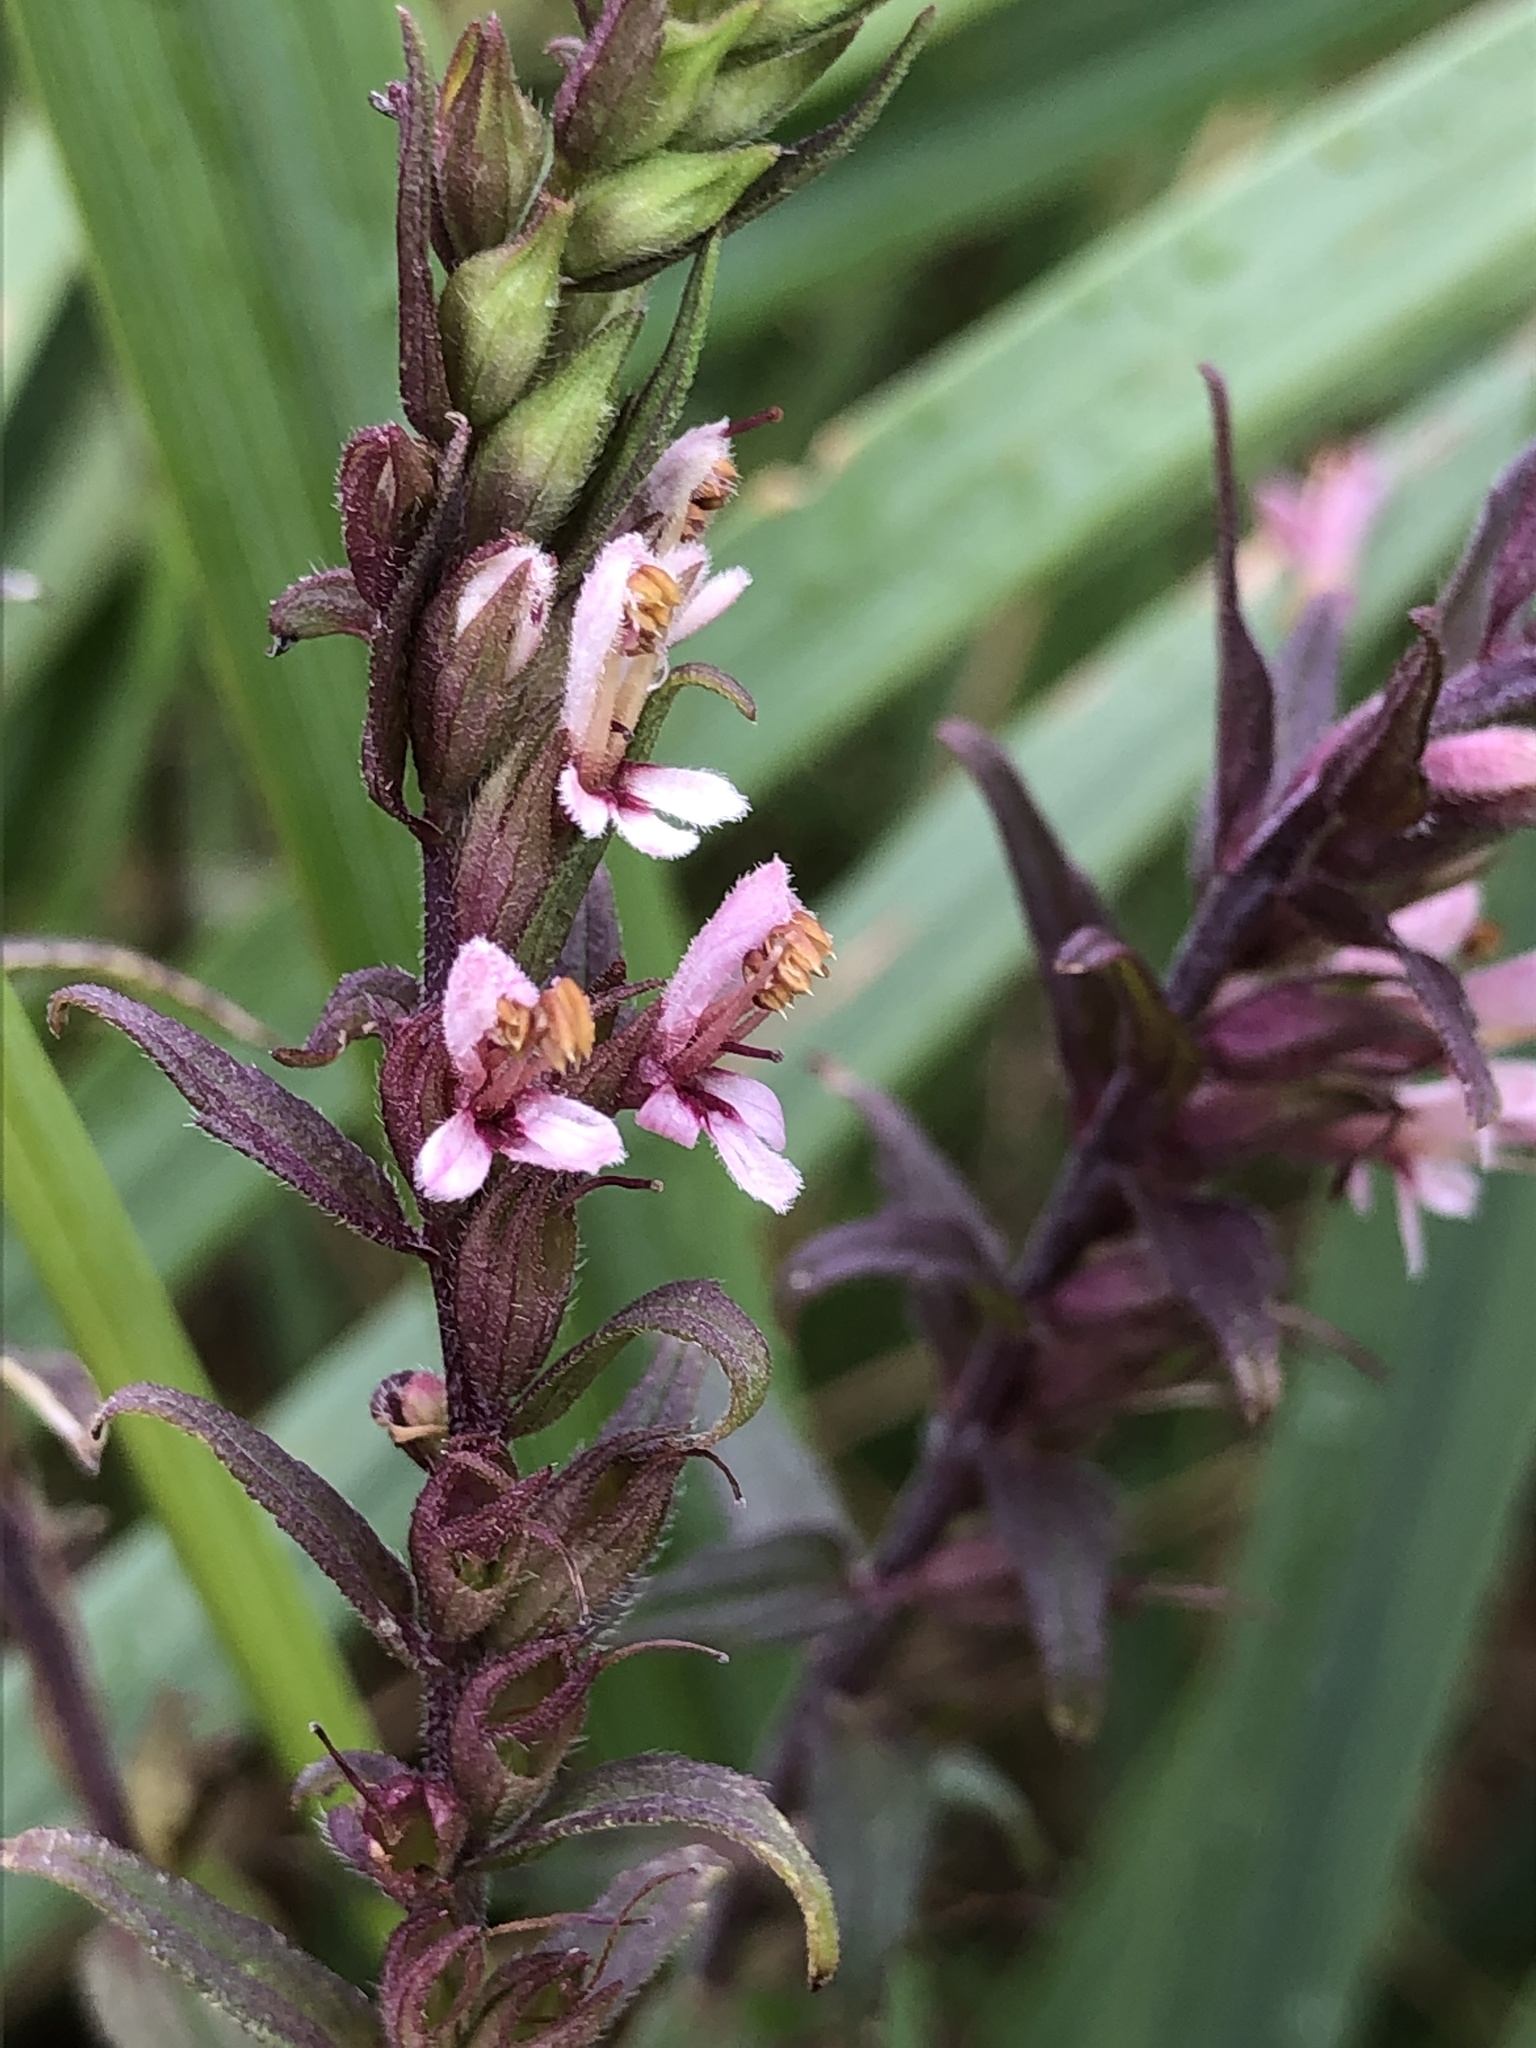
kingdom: Plantae
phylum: Tracheophyta
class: Magnoliopsida
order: Lamiales
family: Orobanchaceae
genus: Odontites
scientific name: Odontites vulgaris
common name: Broomrape
